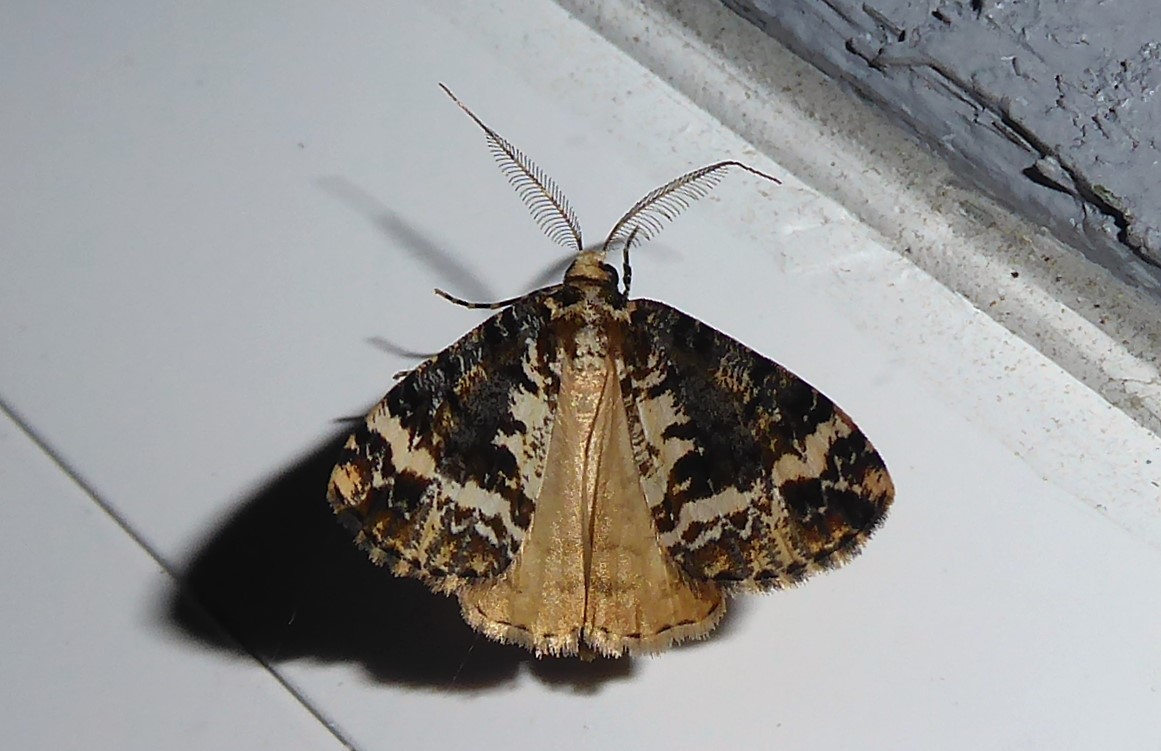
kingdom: Animalia
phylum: Arthropoda
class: Insecta
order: Lepidoptera
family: Geometridae
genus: Pseudocoremia
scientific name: Pseudocoremia leucelaea
